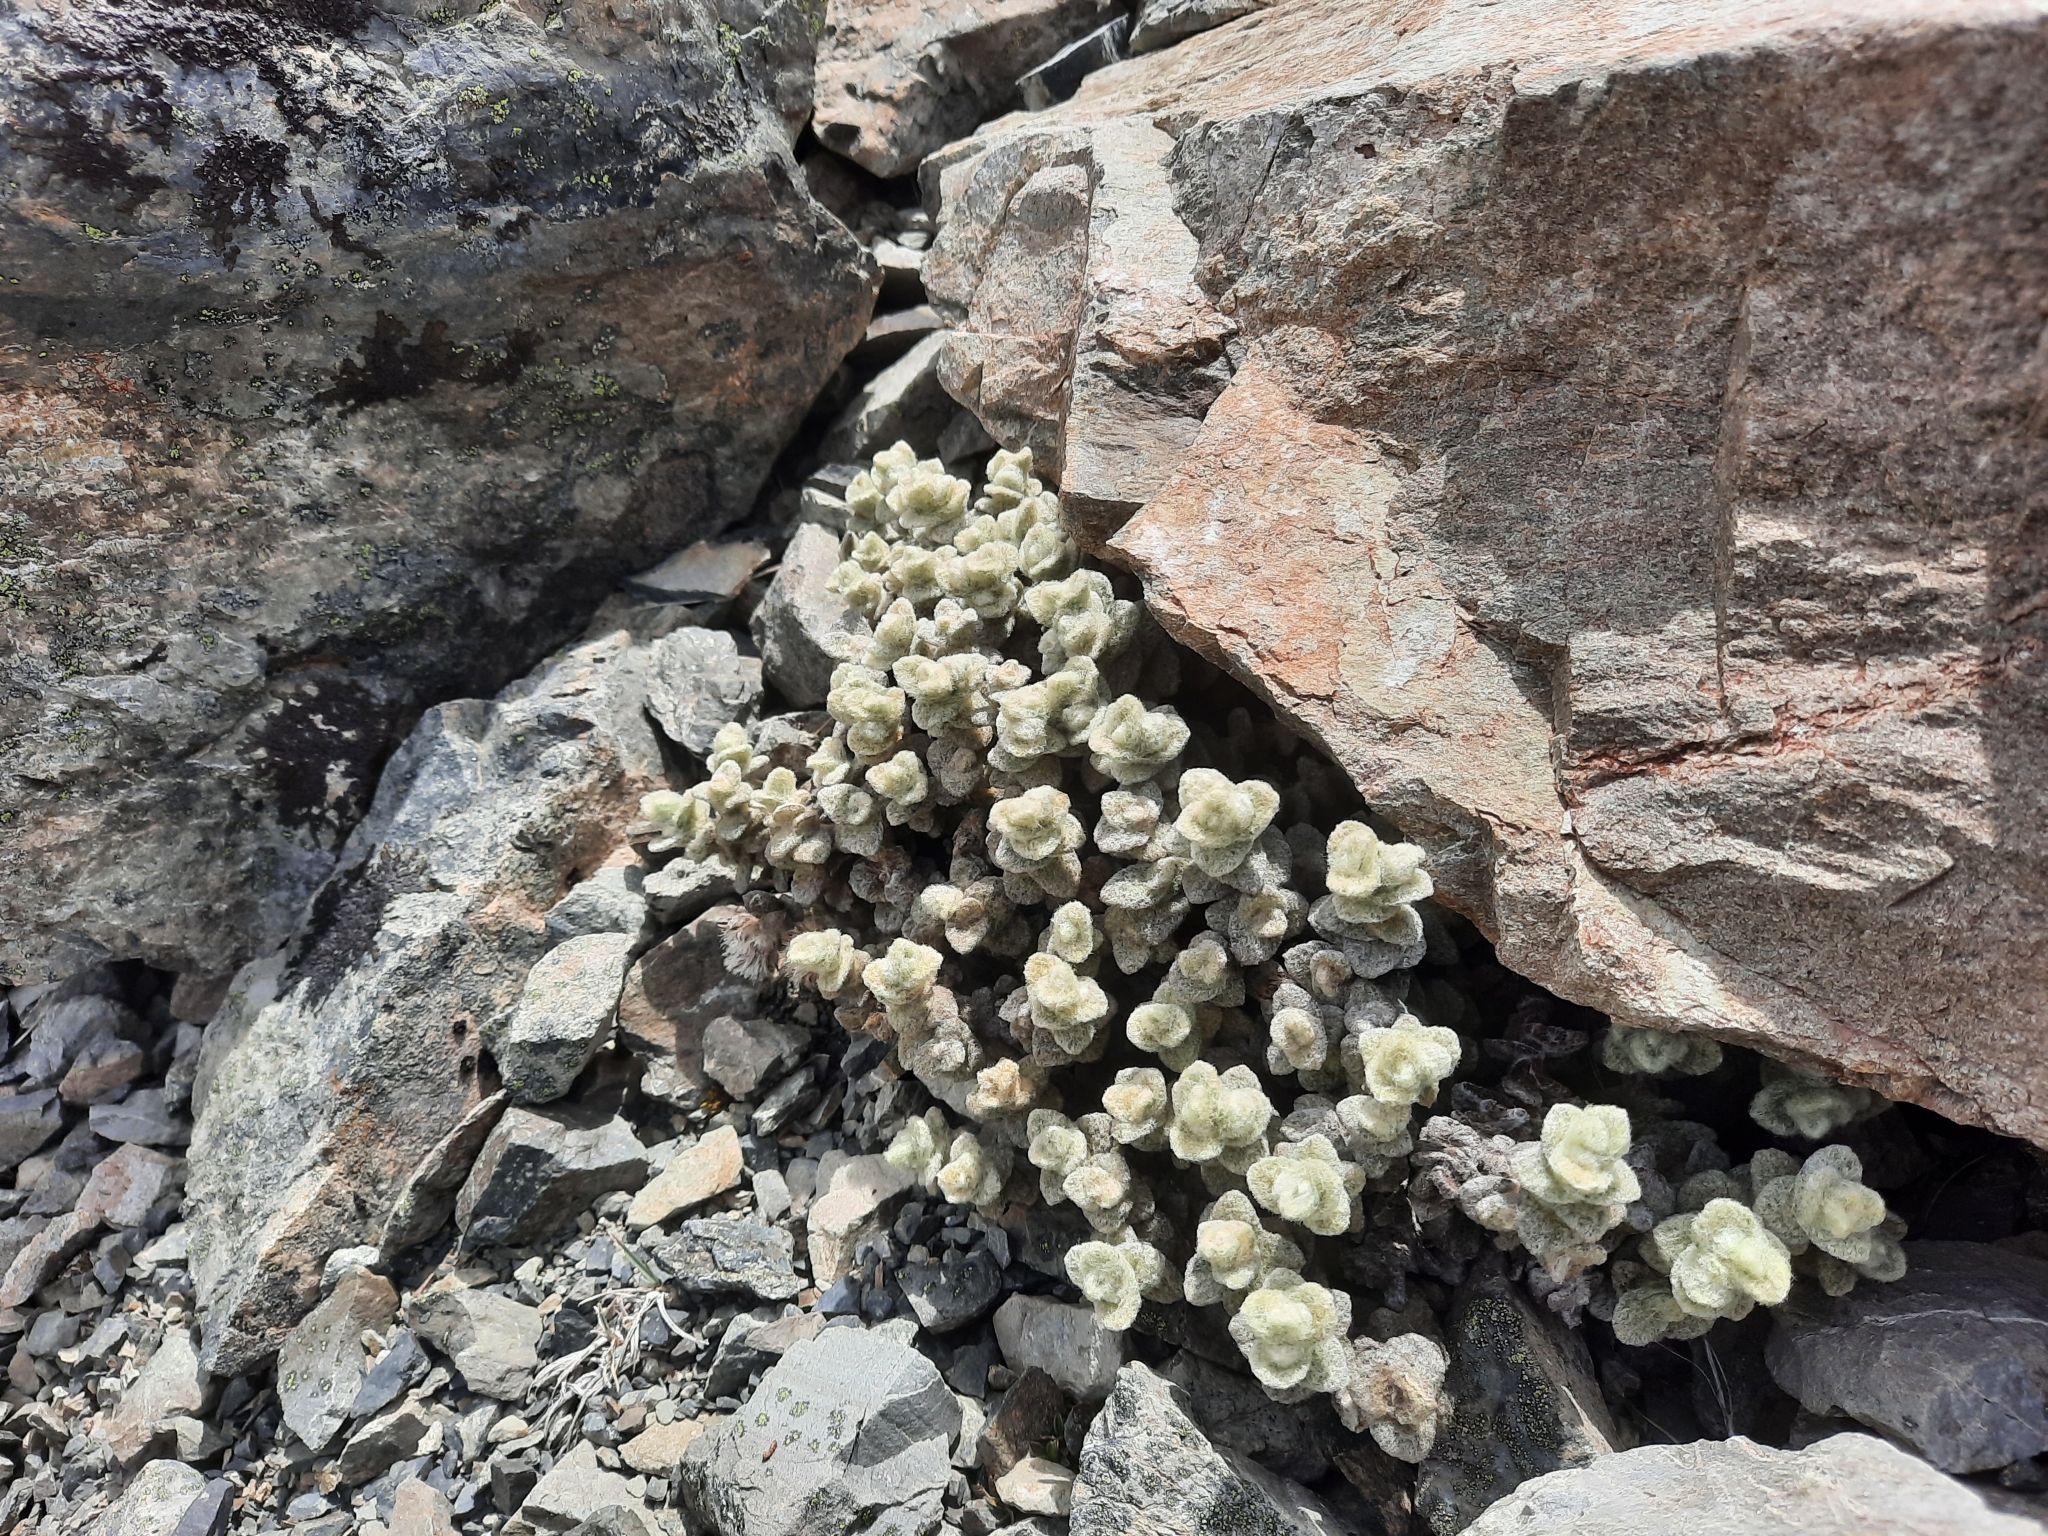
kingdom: Plantae
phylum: Tracheophyta
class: Magnoliopsida
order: Asterales
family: Asteraceae
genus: Haastia
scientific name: Haastia recurva
